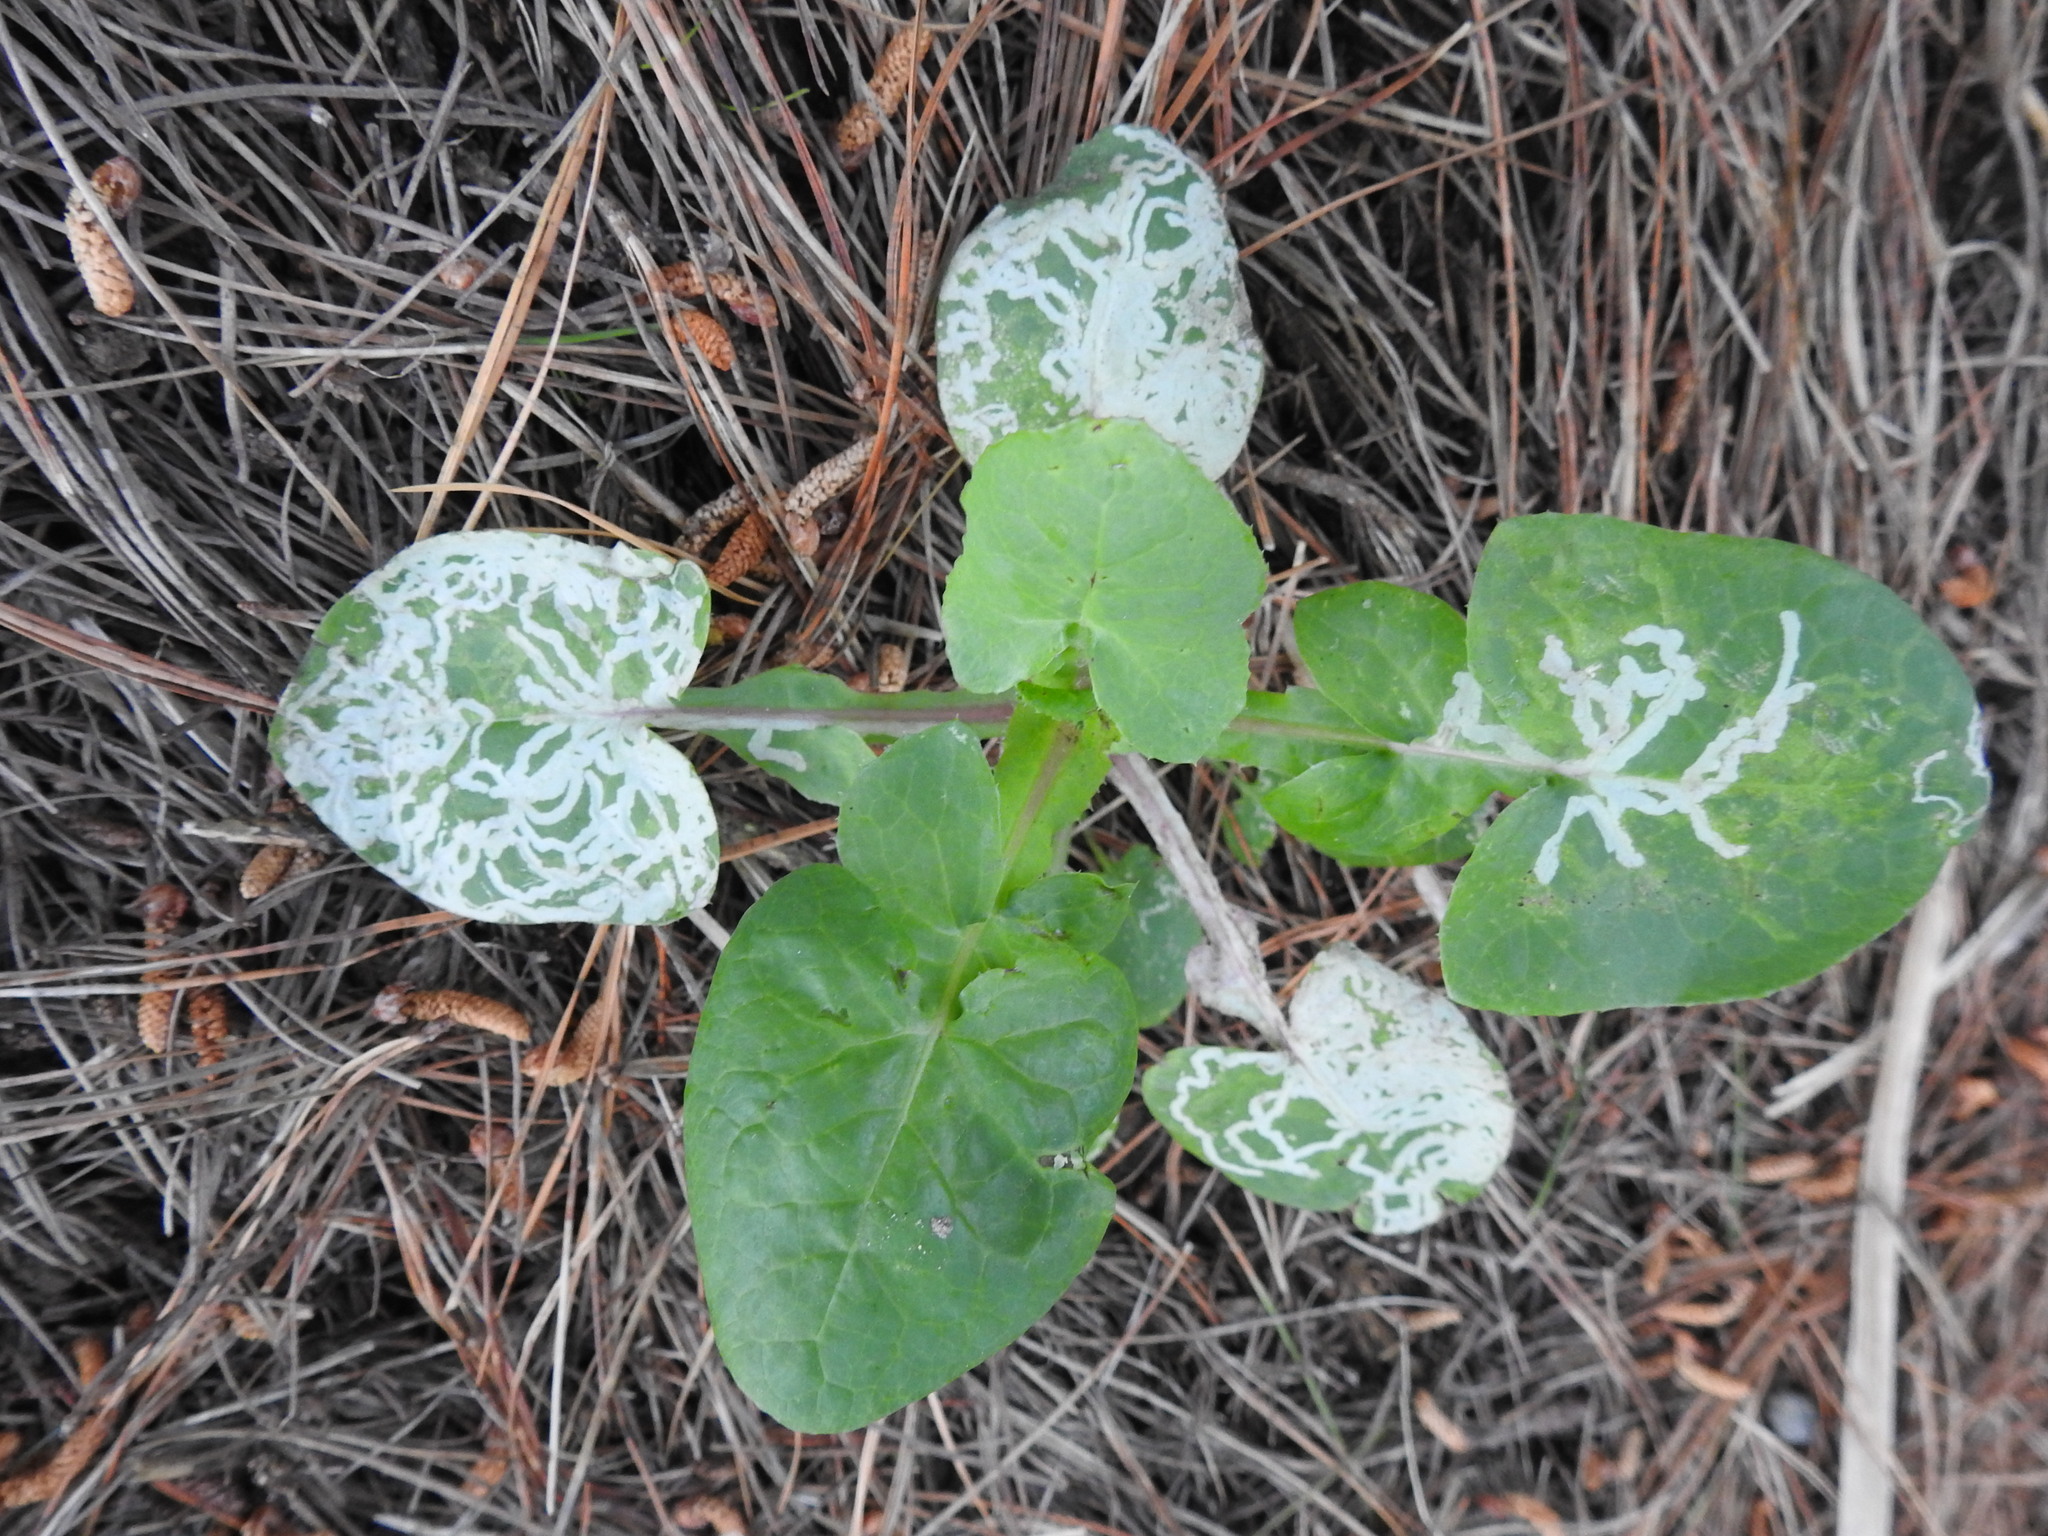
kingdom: Plantae
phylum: Tracheophyta
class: Magnoliopsida
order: Asterales
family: Asteraceae
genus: Sonchus
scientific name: Sonchus oleraceus
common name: Common sowthistle
